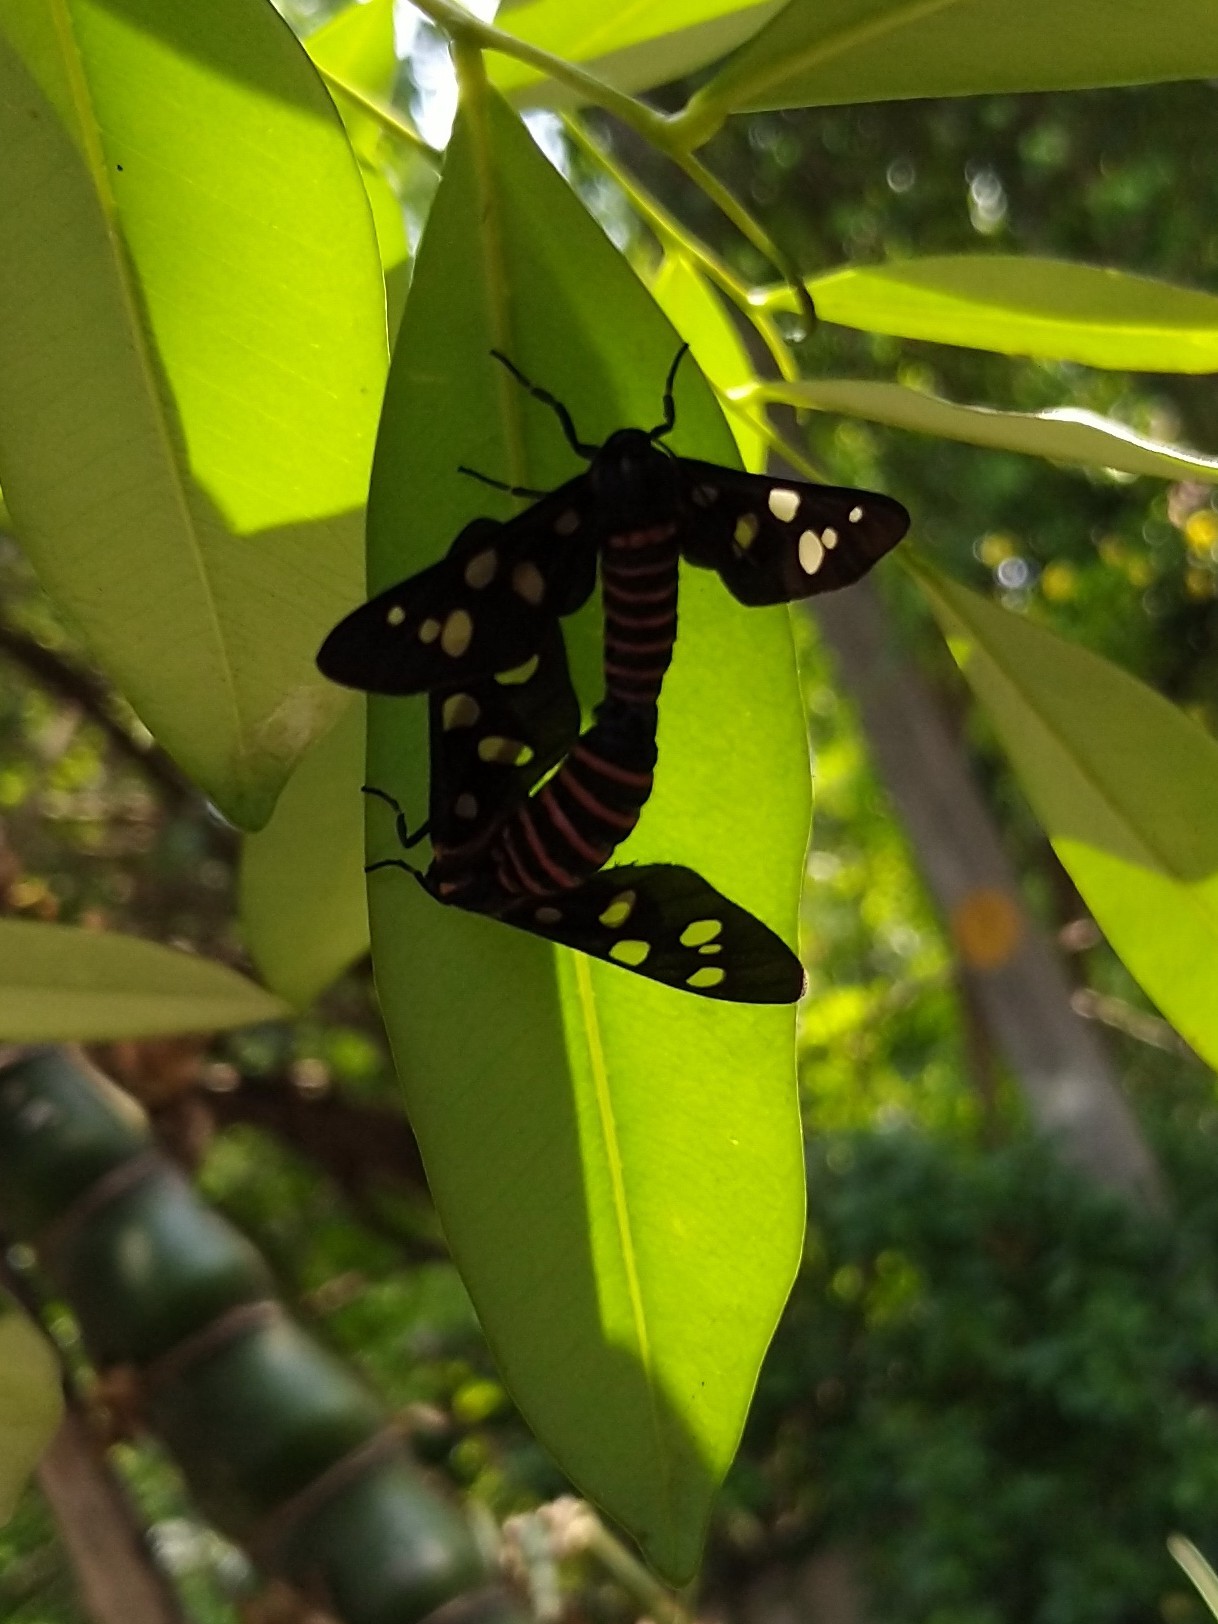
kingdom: Animalia
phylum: Arthropoda
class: Insecta
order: Lepidoptera
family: Erebidae
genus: Amata
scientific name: Amata passalis
